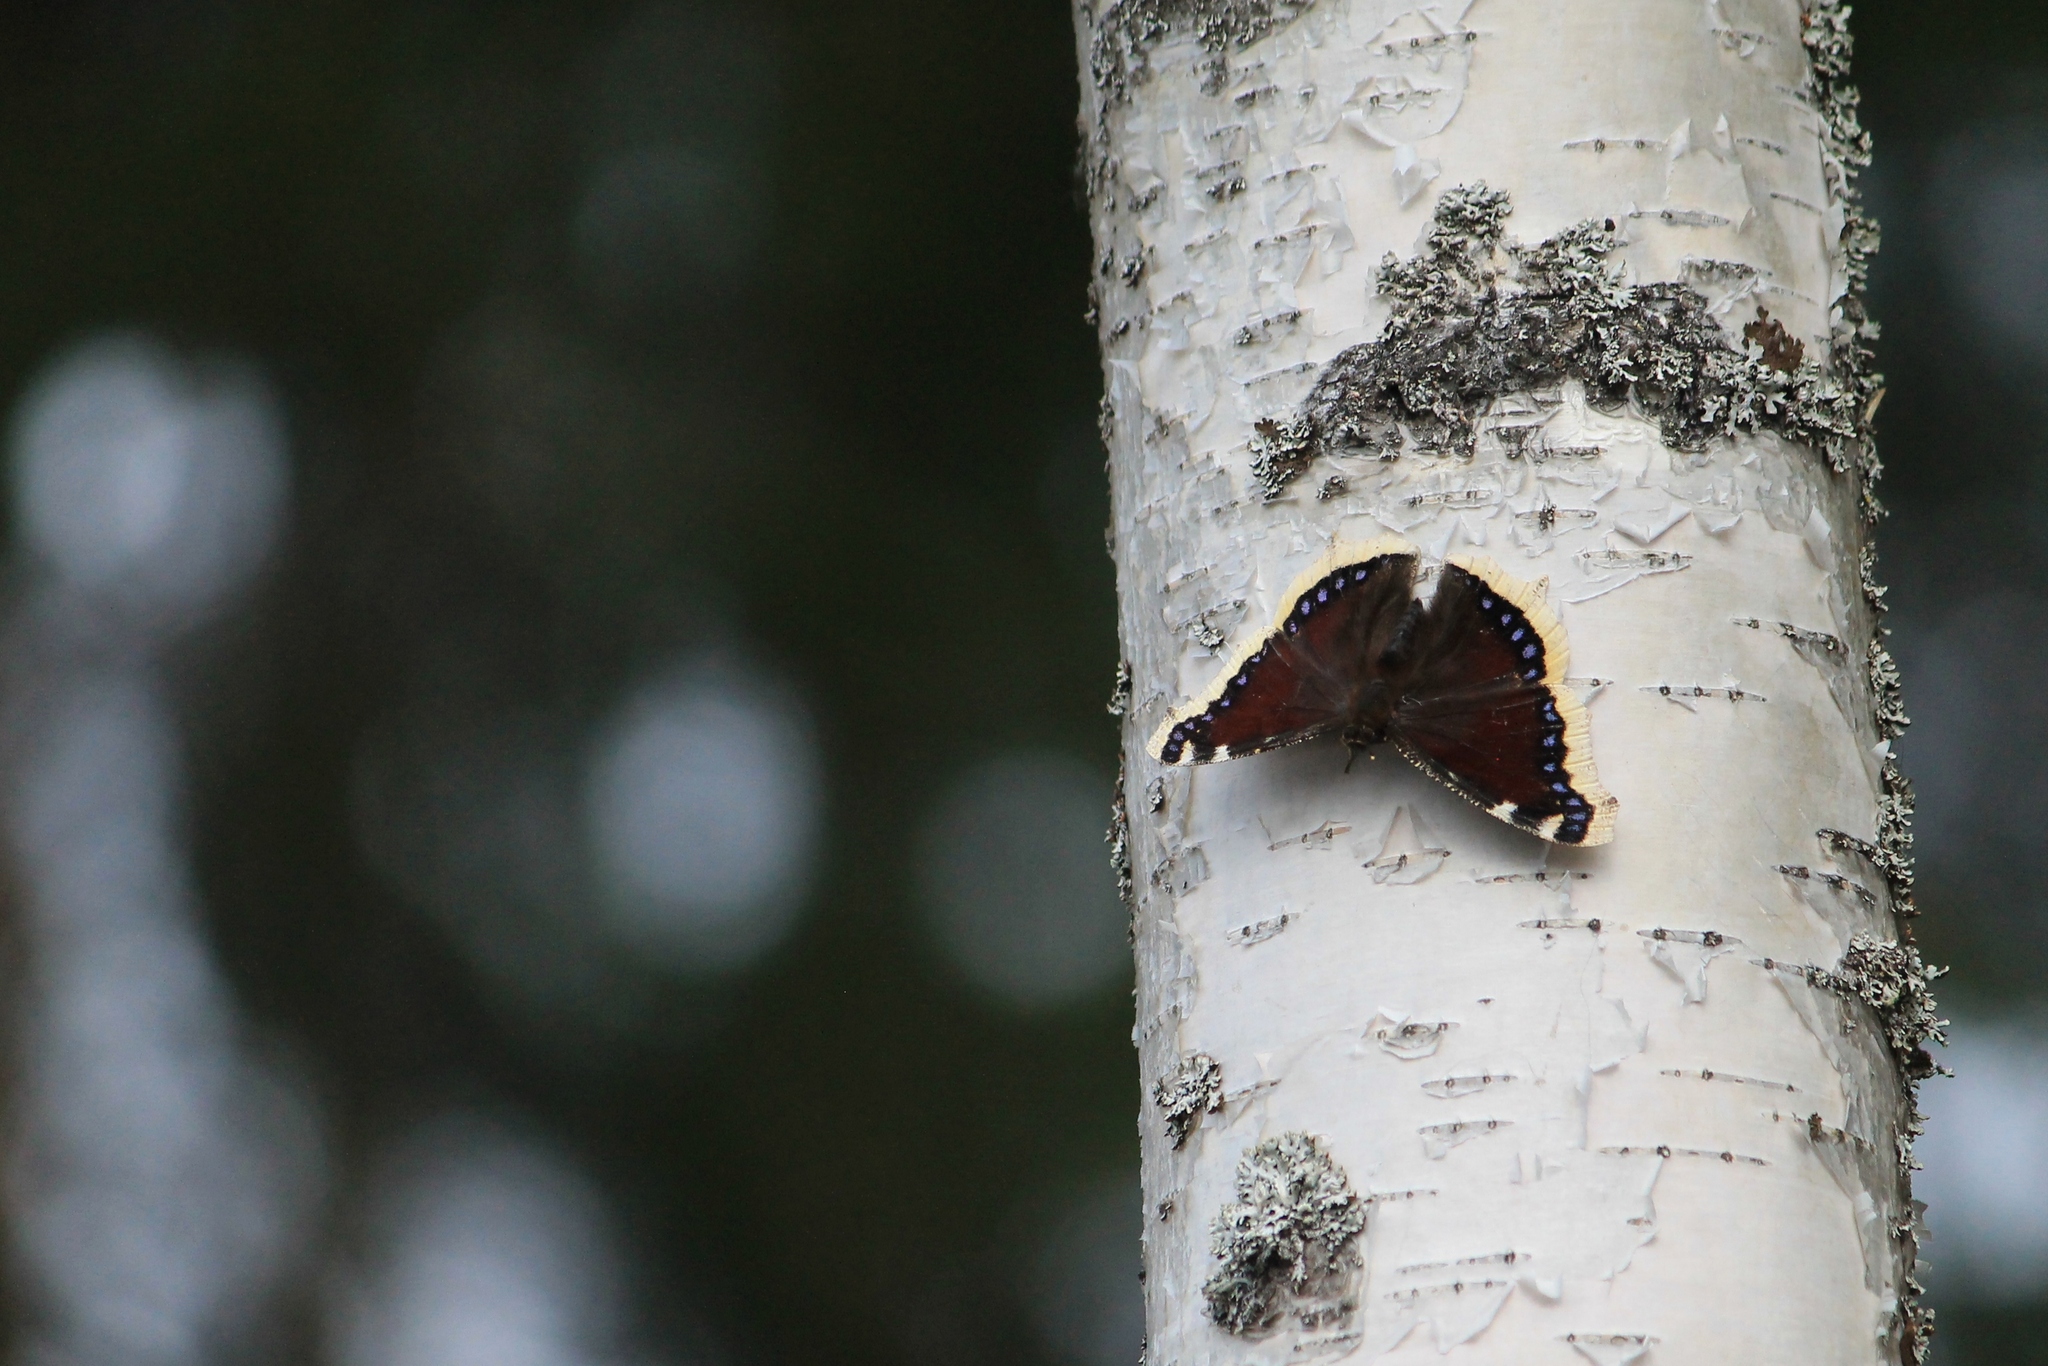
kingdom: Animalia
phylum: Arthropoda
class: Insecta
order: Lepidoptera
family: Nymphalidae
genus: Nymphalis
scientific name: Nymphalis antiopa
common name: Camberwell beauty
